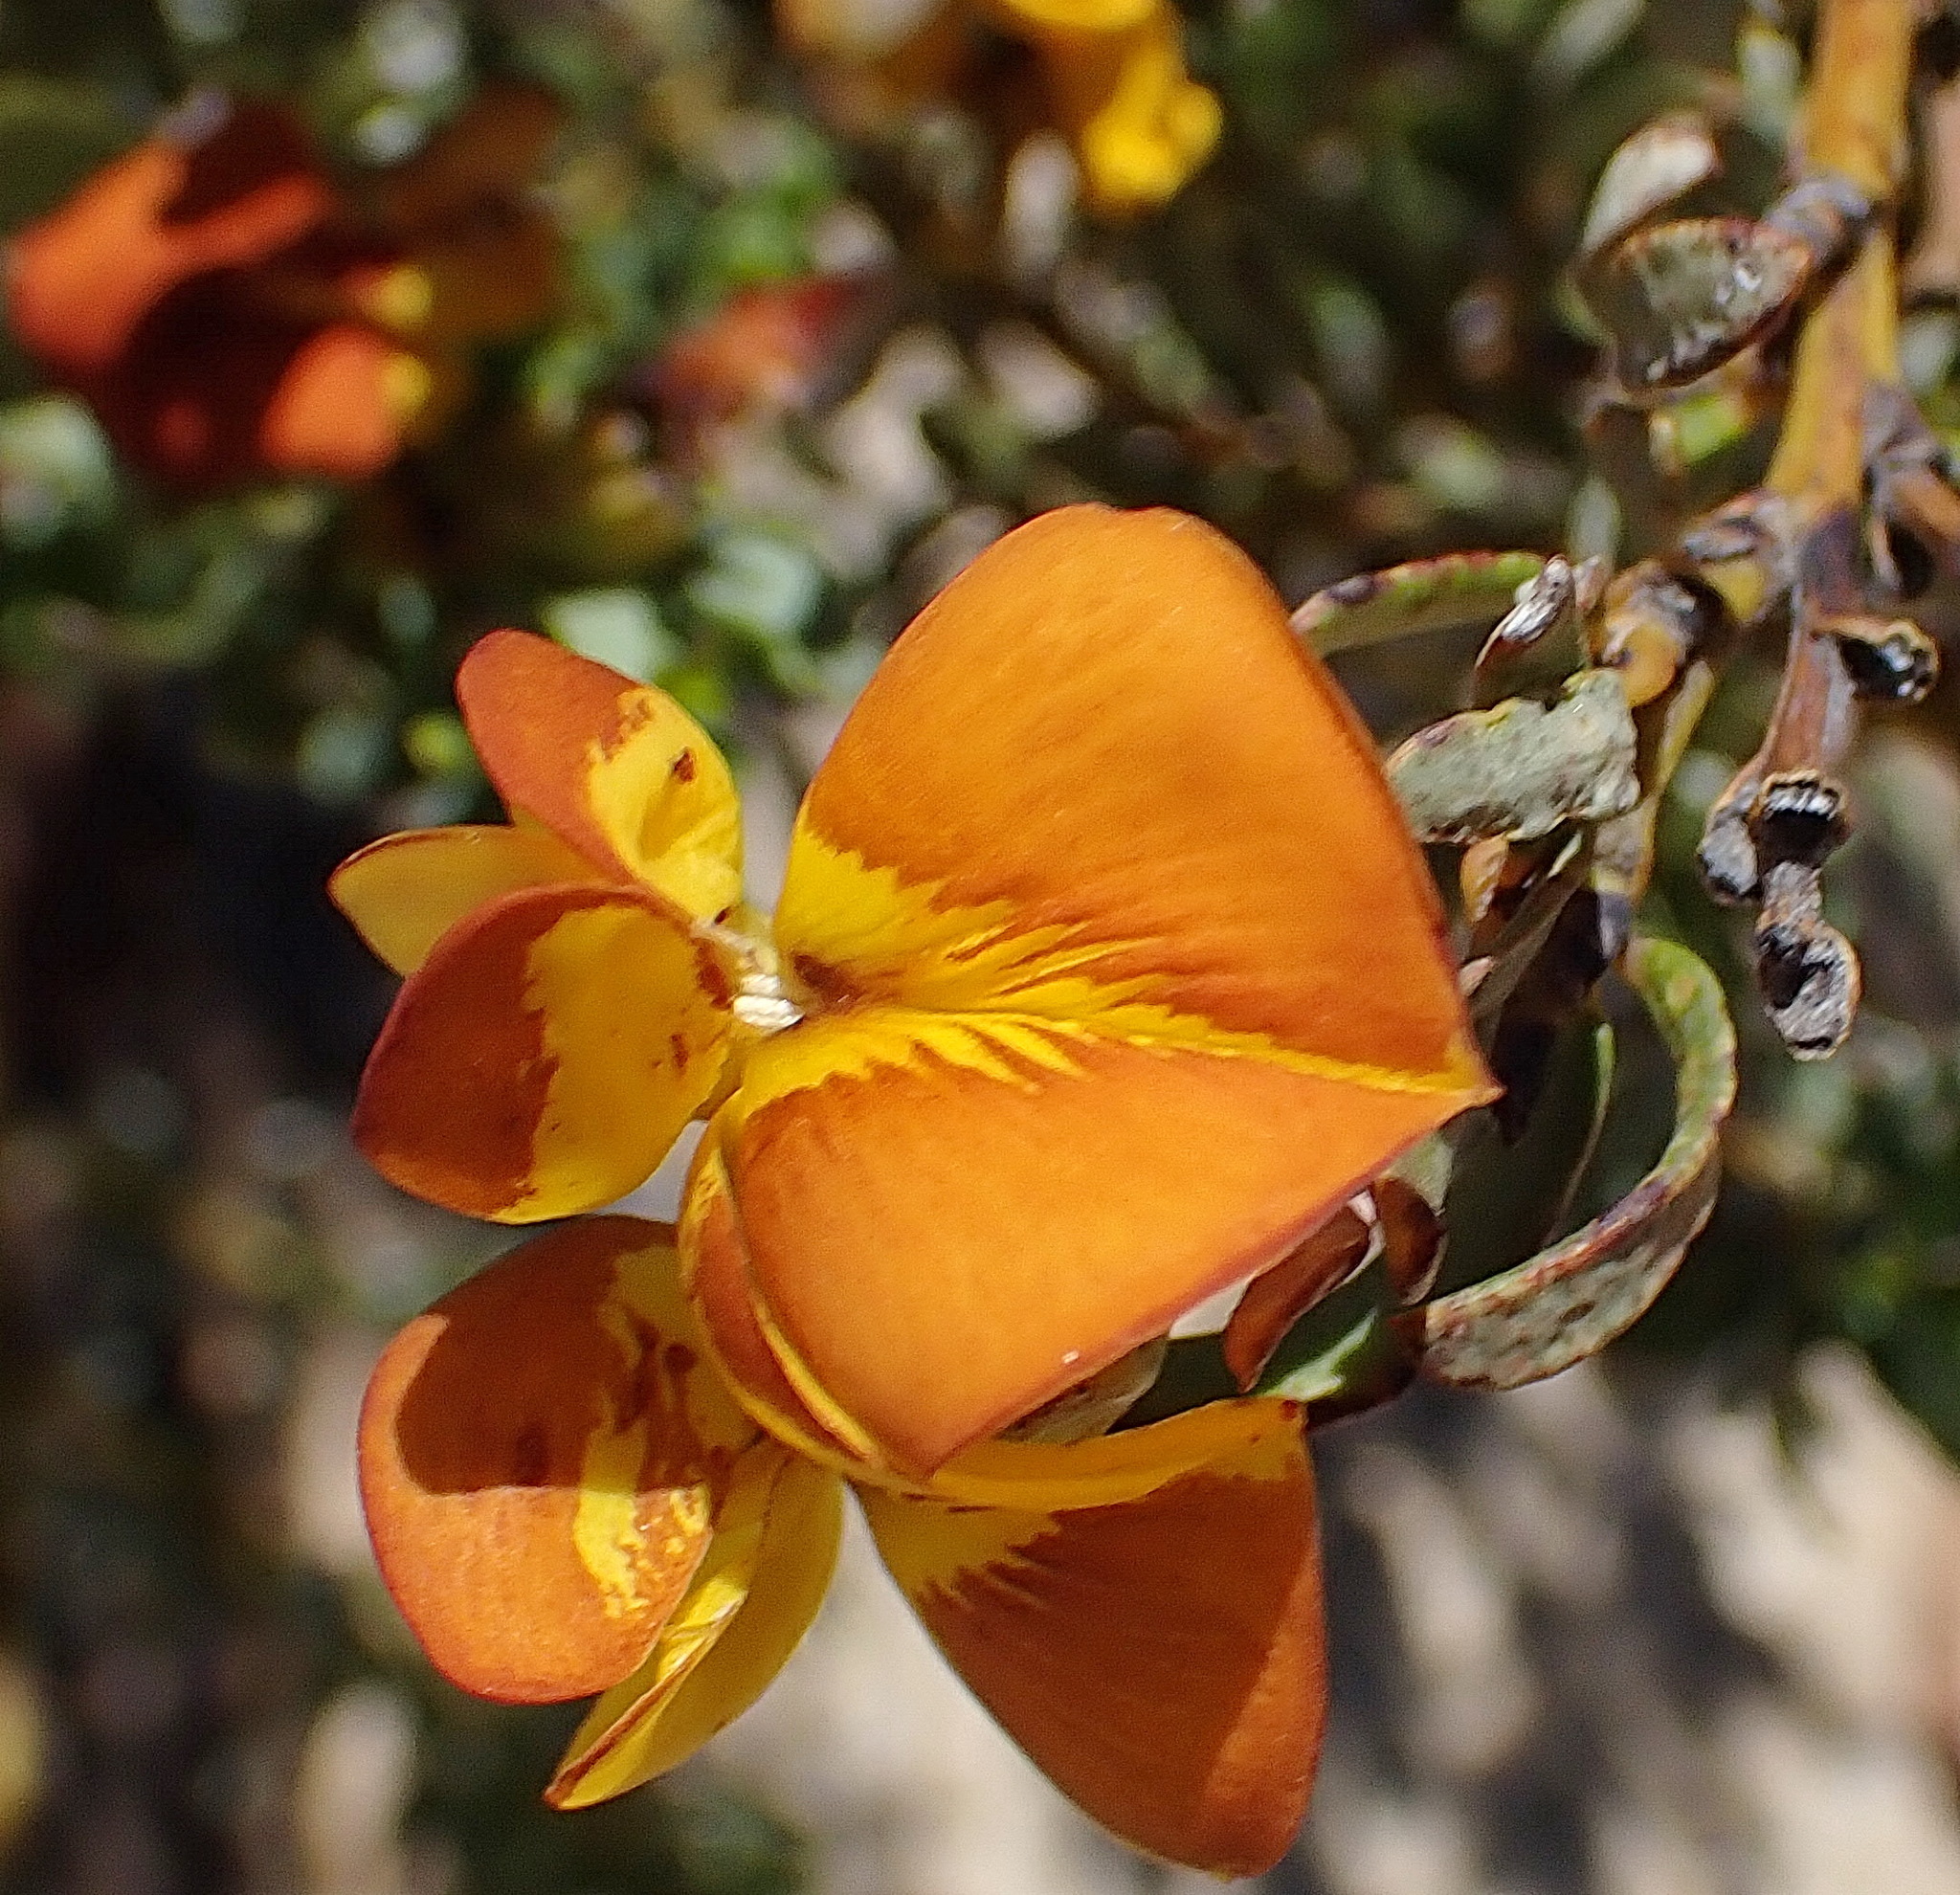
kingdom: Plantae
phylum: Tracheophyta
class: Magnoliopsida
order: Fabales
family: Fabaceae
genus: Cyclopia
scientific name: Cyclopia intermedia
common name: Mountain tea
